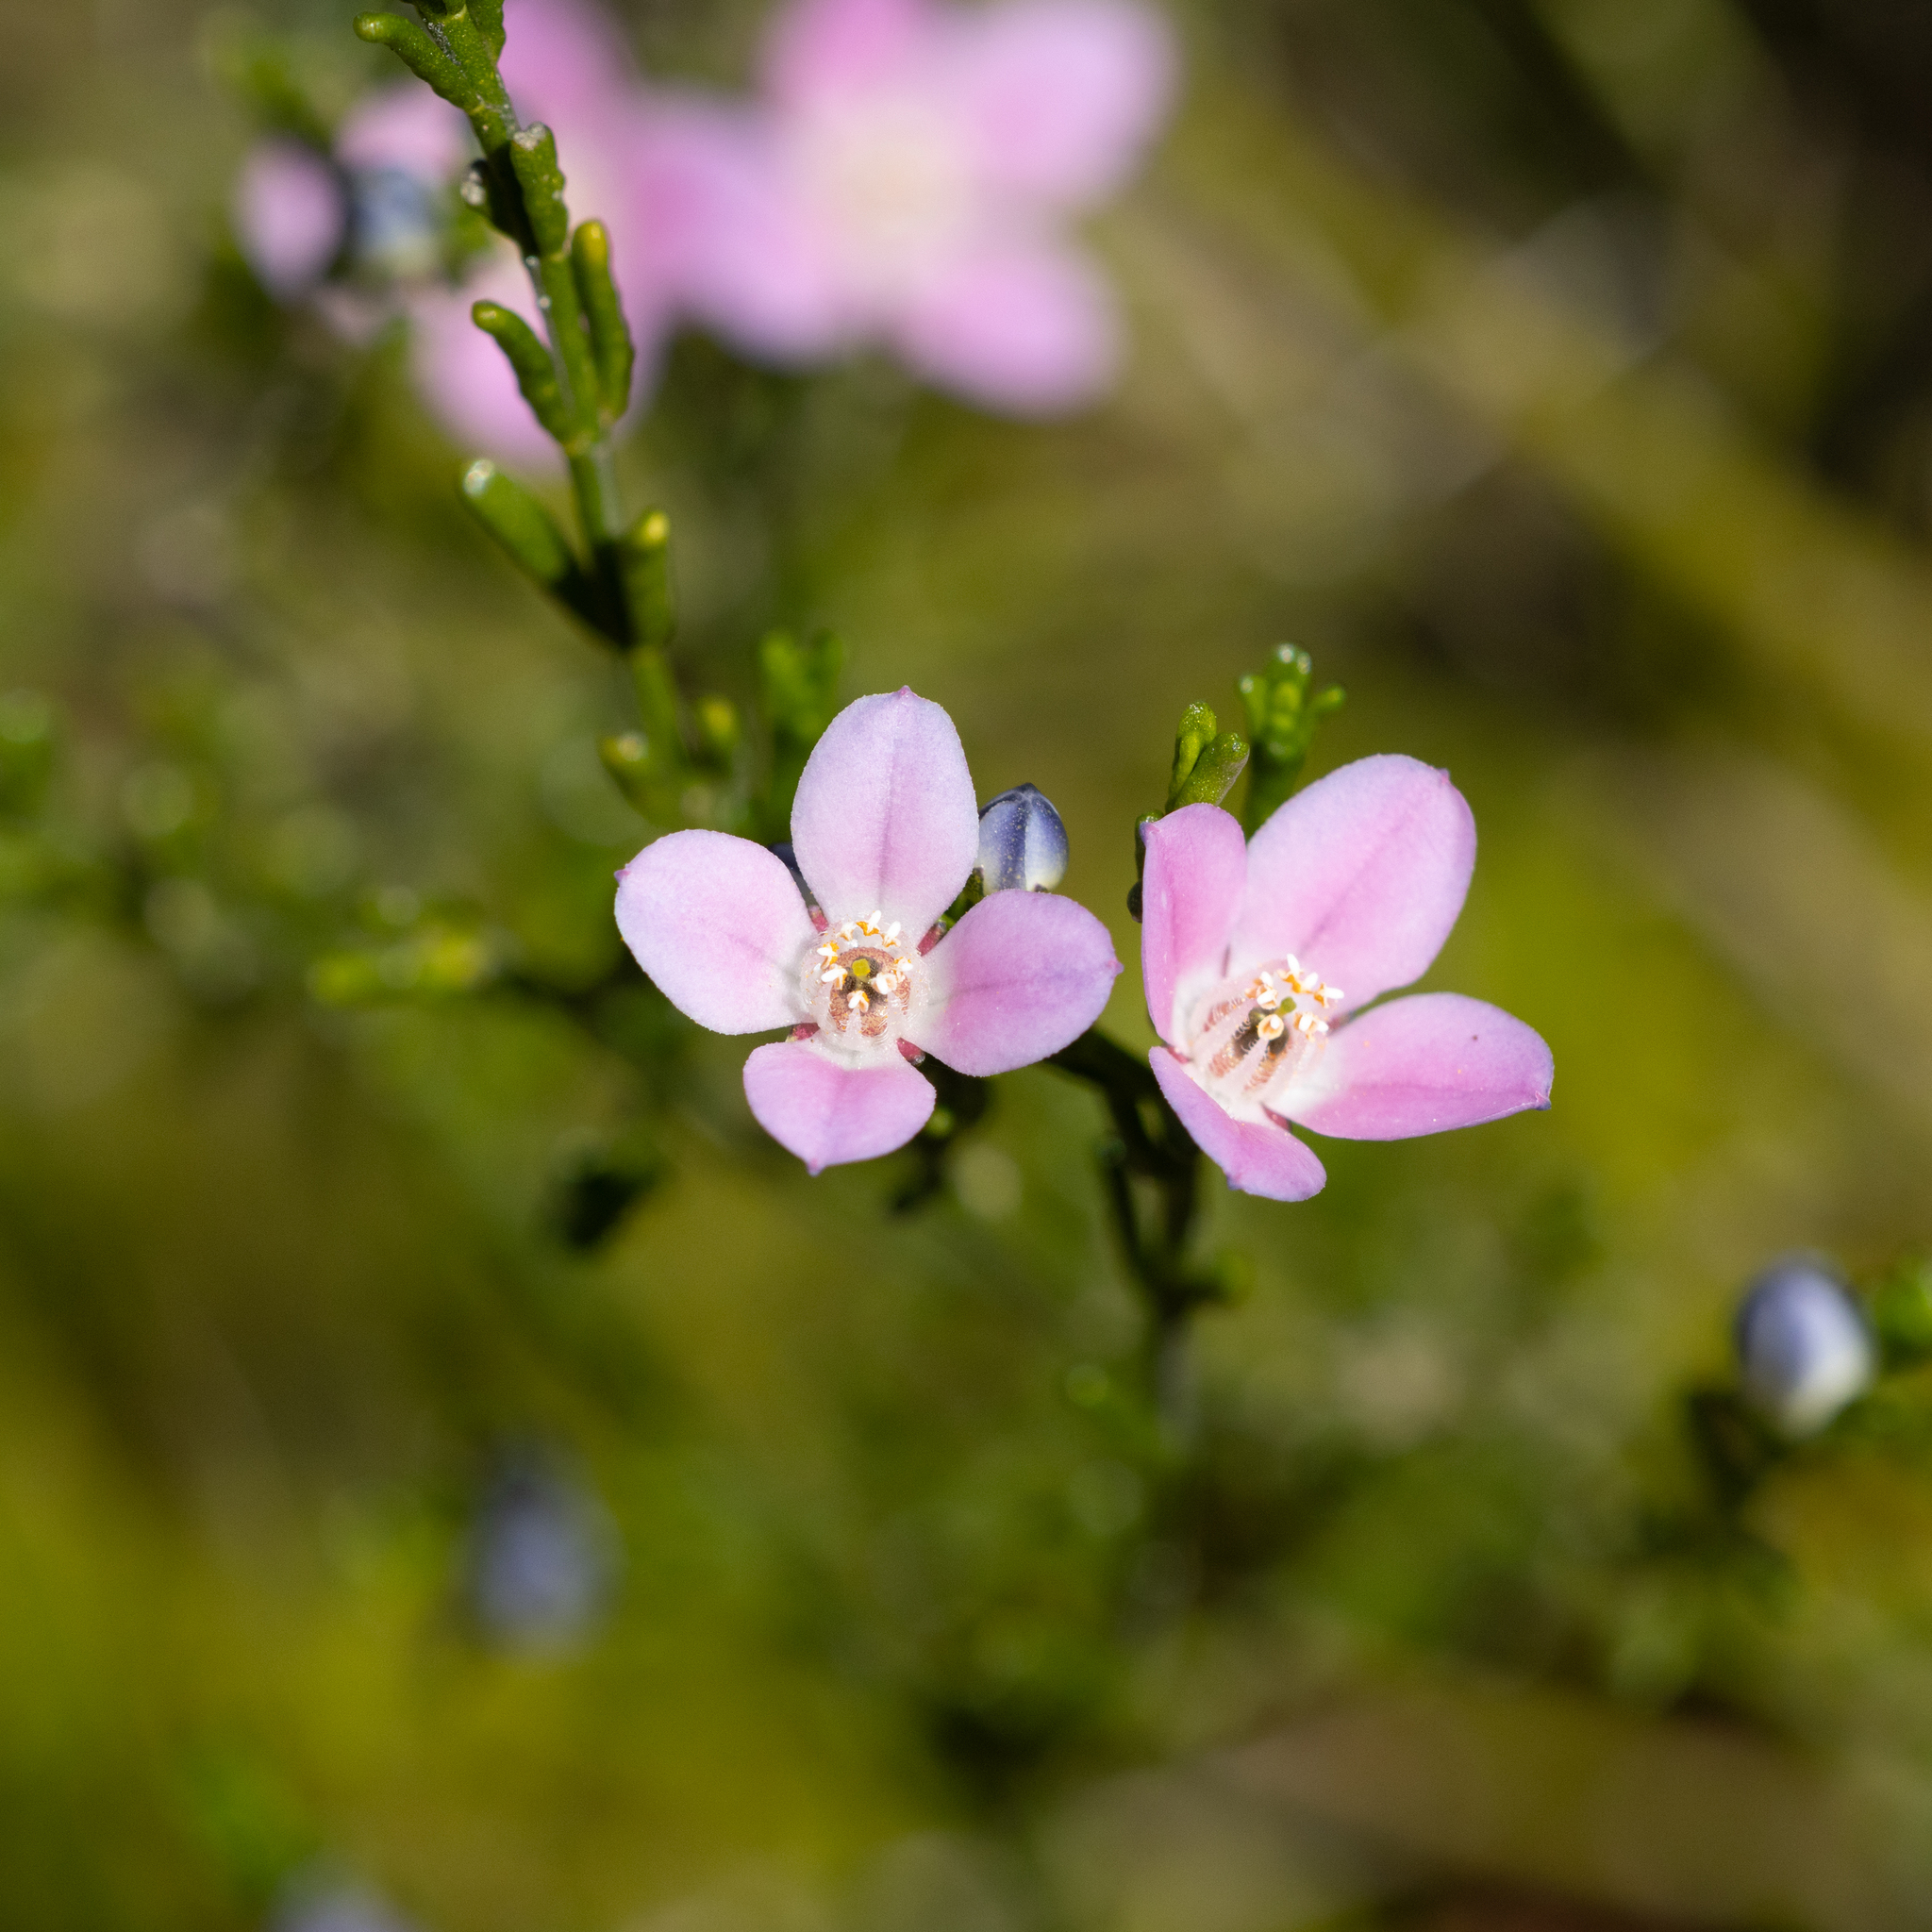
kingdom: Plantae
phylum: Tracheophyta
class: Magnoliopsida
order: Sapindales
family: Rutaceae
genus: Cyanothamnus
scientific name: Cyanothamnus coerulescens
